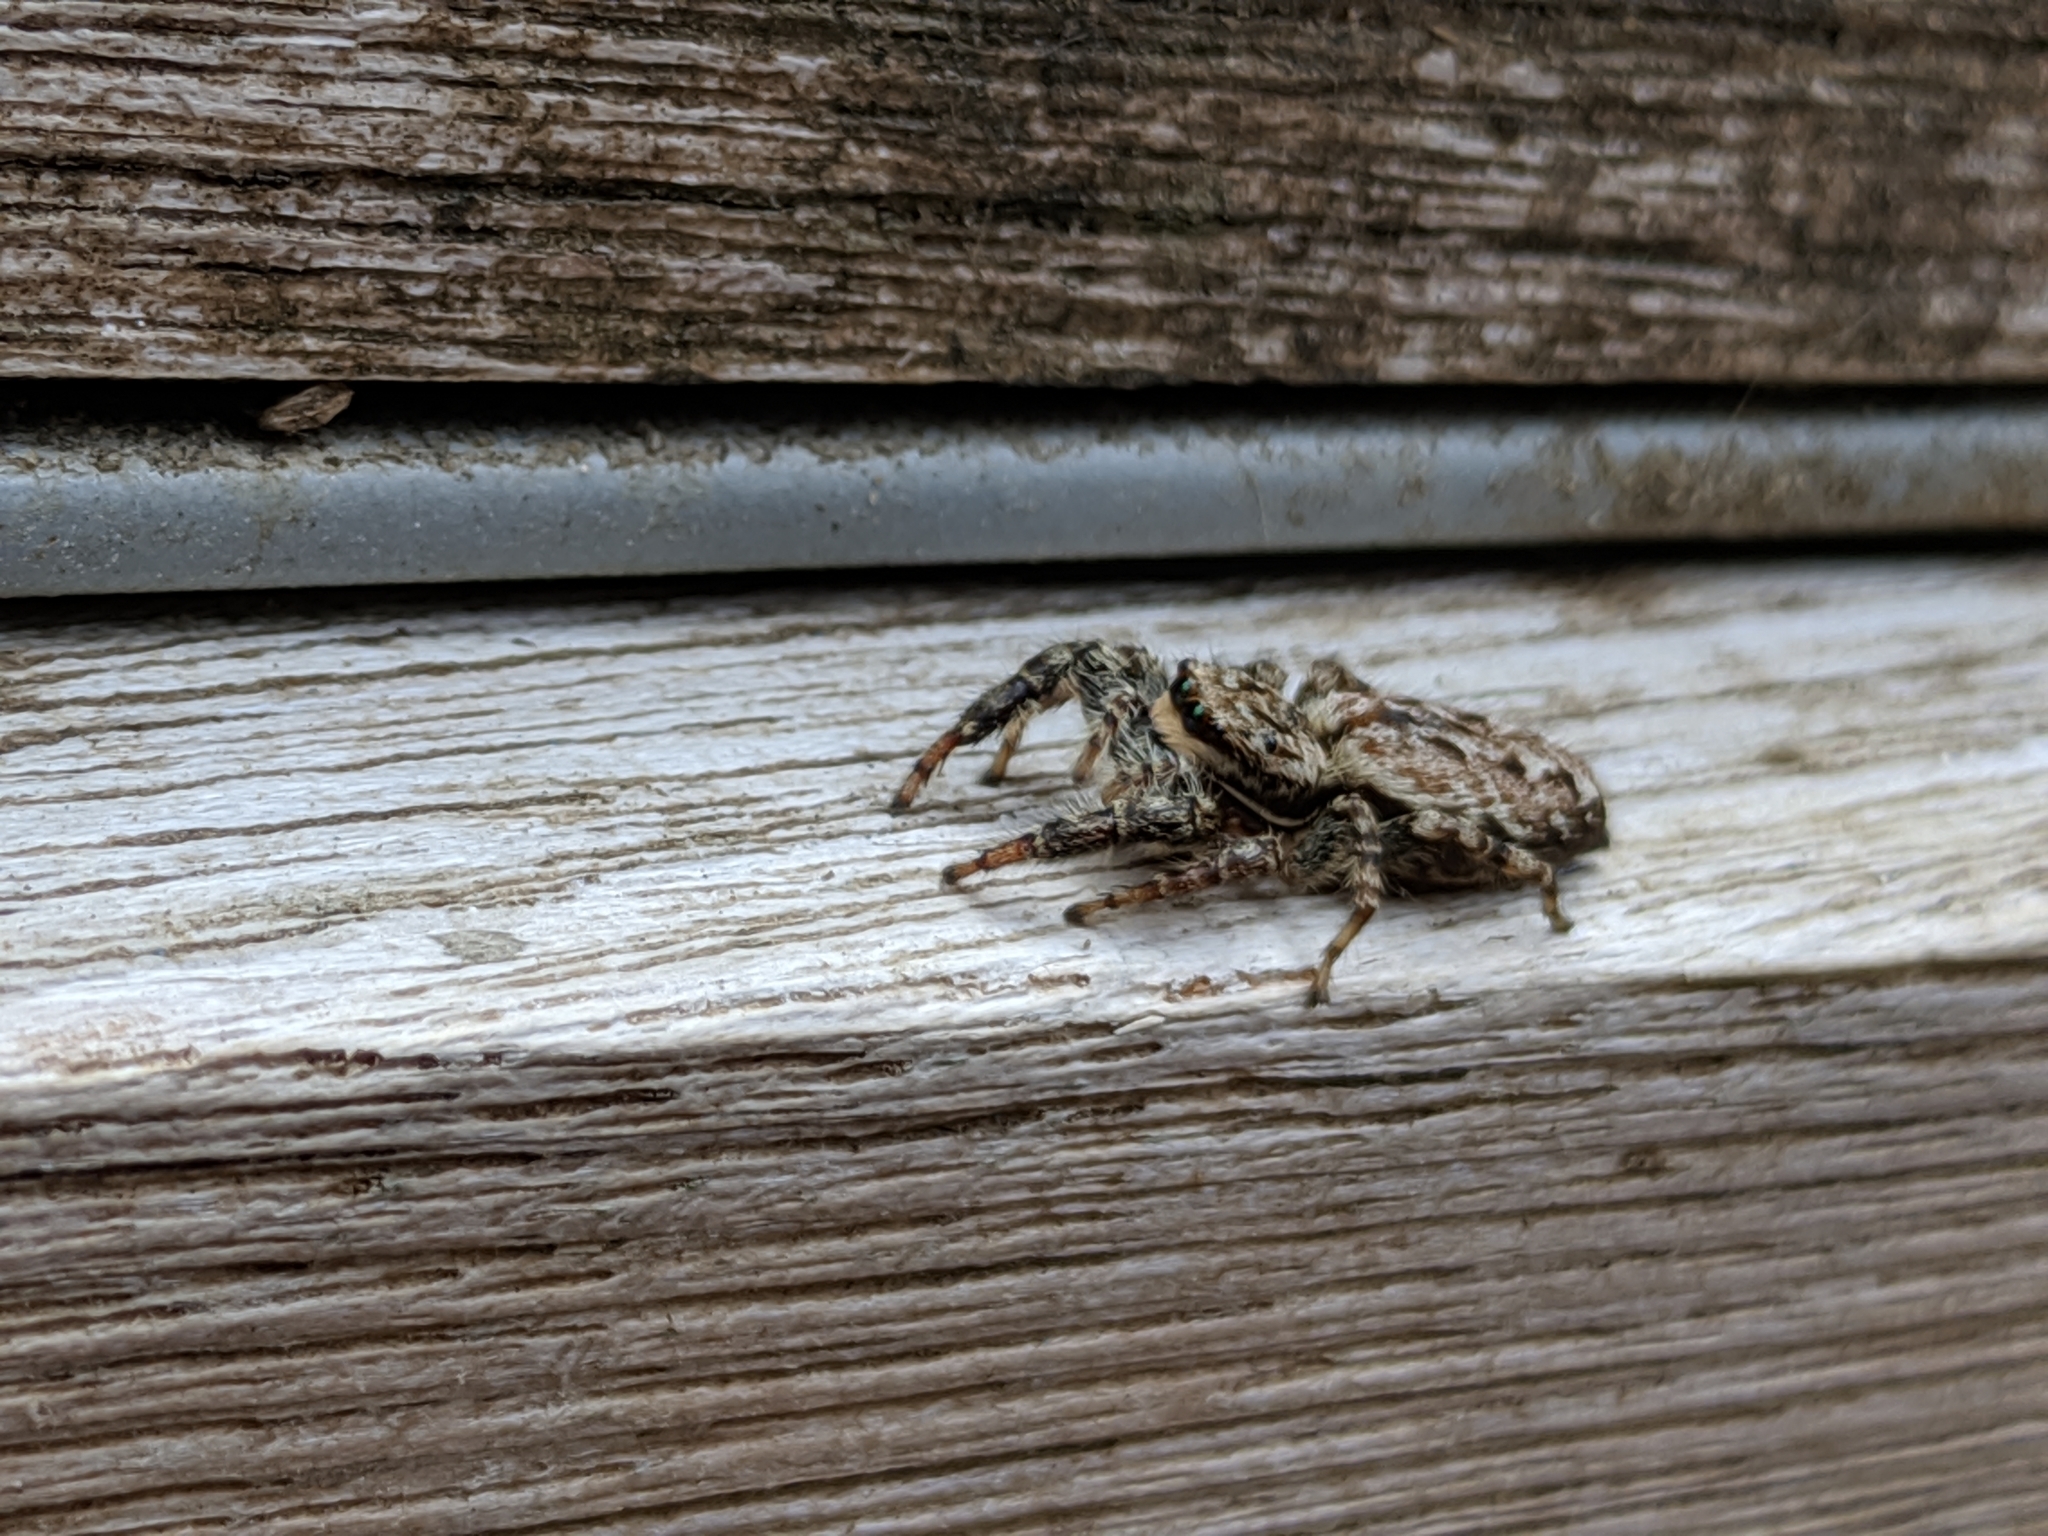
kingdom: Animalia
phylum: Arthropoda
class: Arachnida
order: Araneae
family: Salticidae
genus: Marpissa
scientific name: Marpissa muscosa
